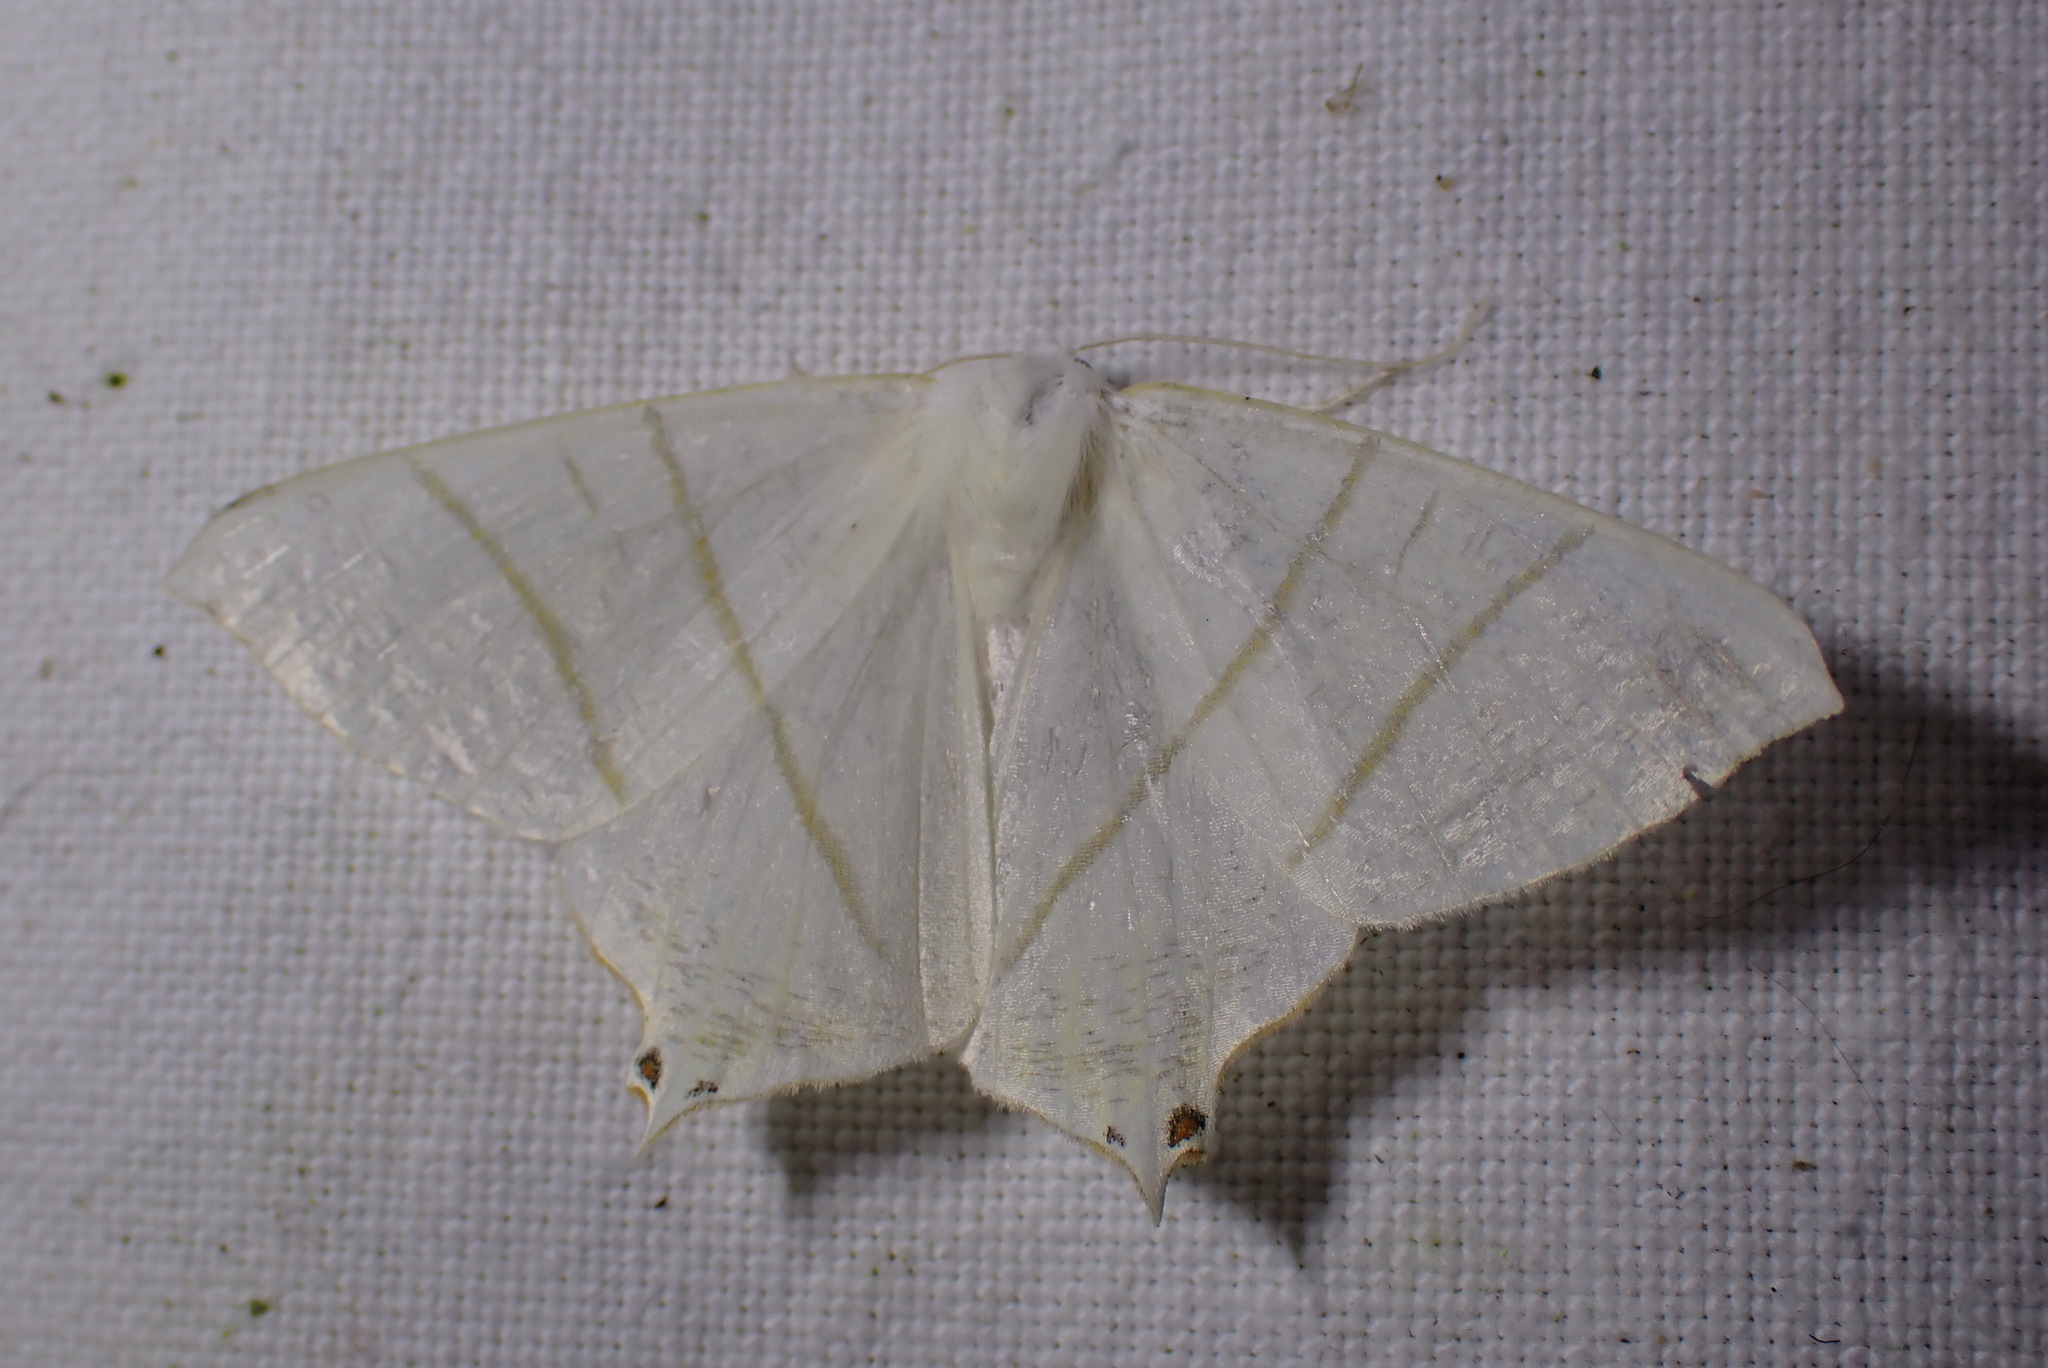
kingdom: Animalia
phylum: Arthropoda
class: Insecta
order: Lepidoptera
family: Geometridae
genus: Ourapteryx
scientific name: Ourapteryx sambucaria
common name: Swallow-tailed moth
